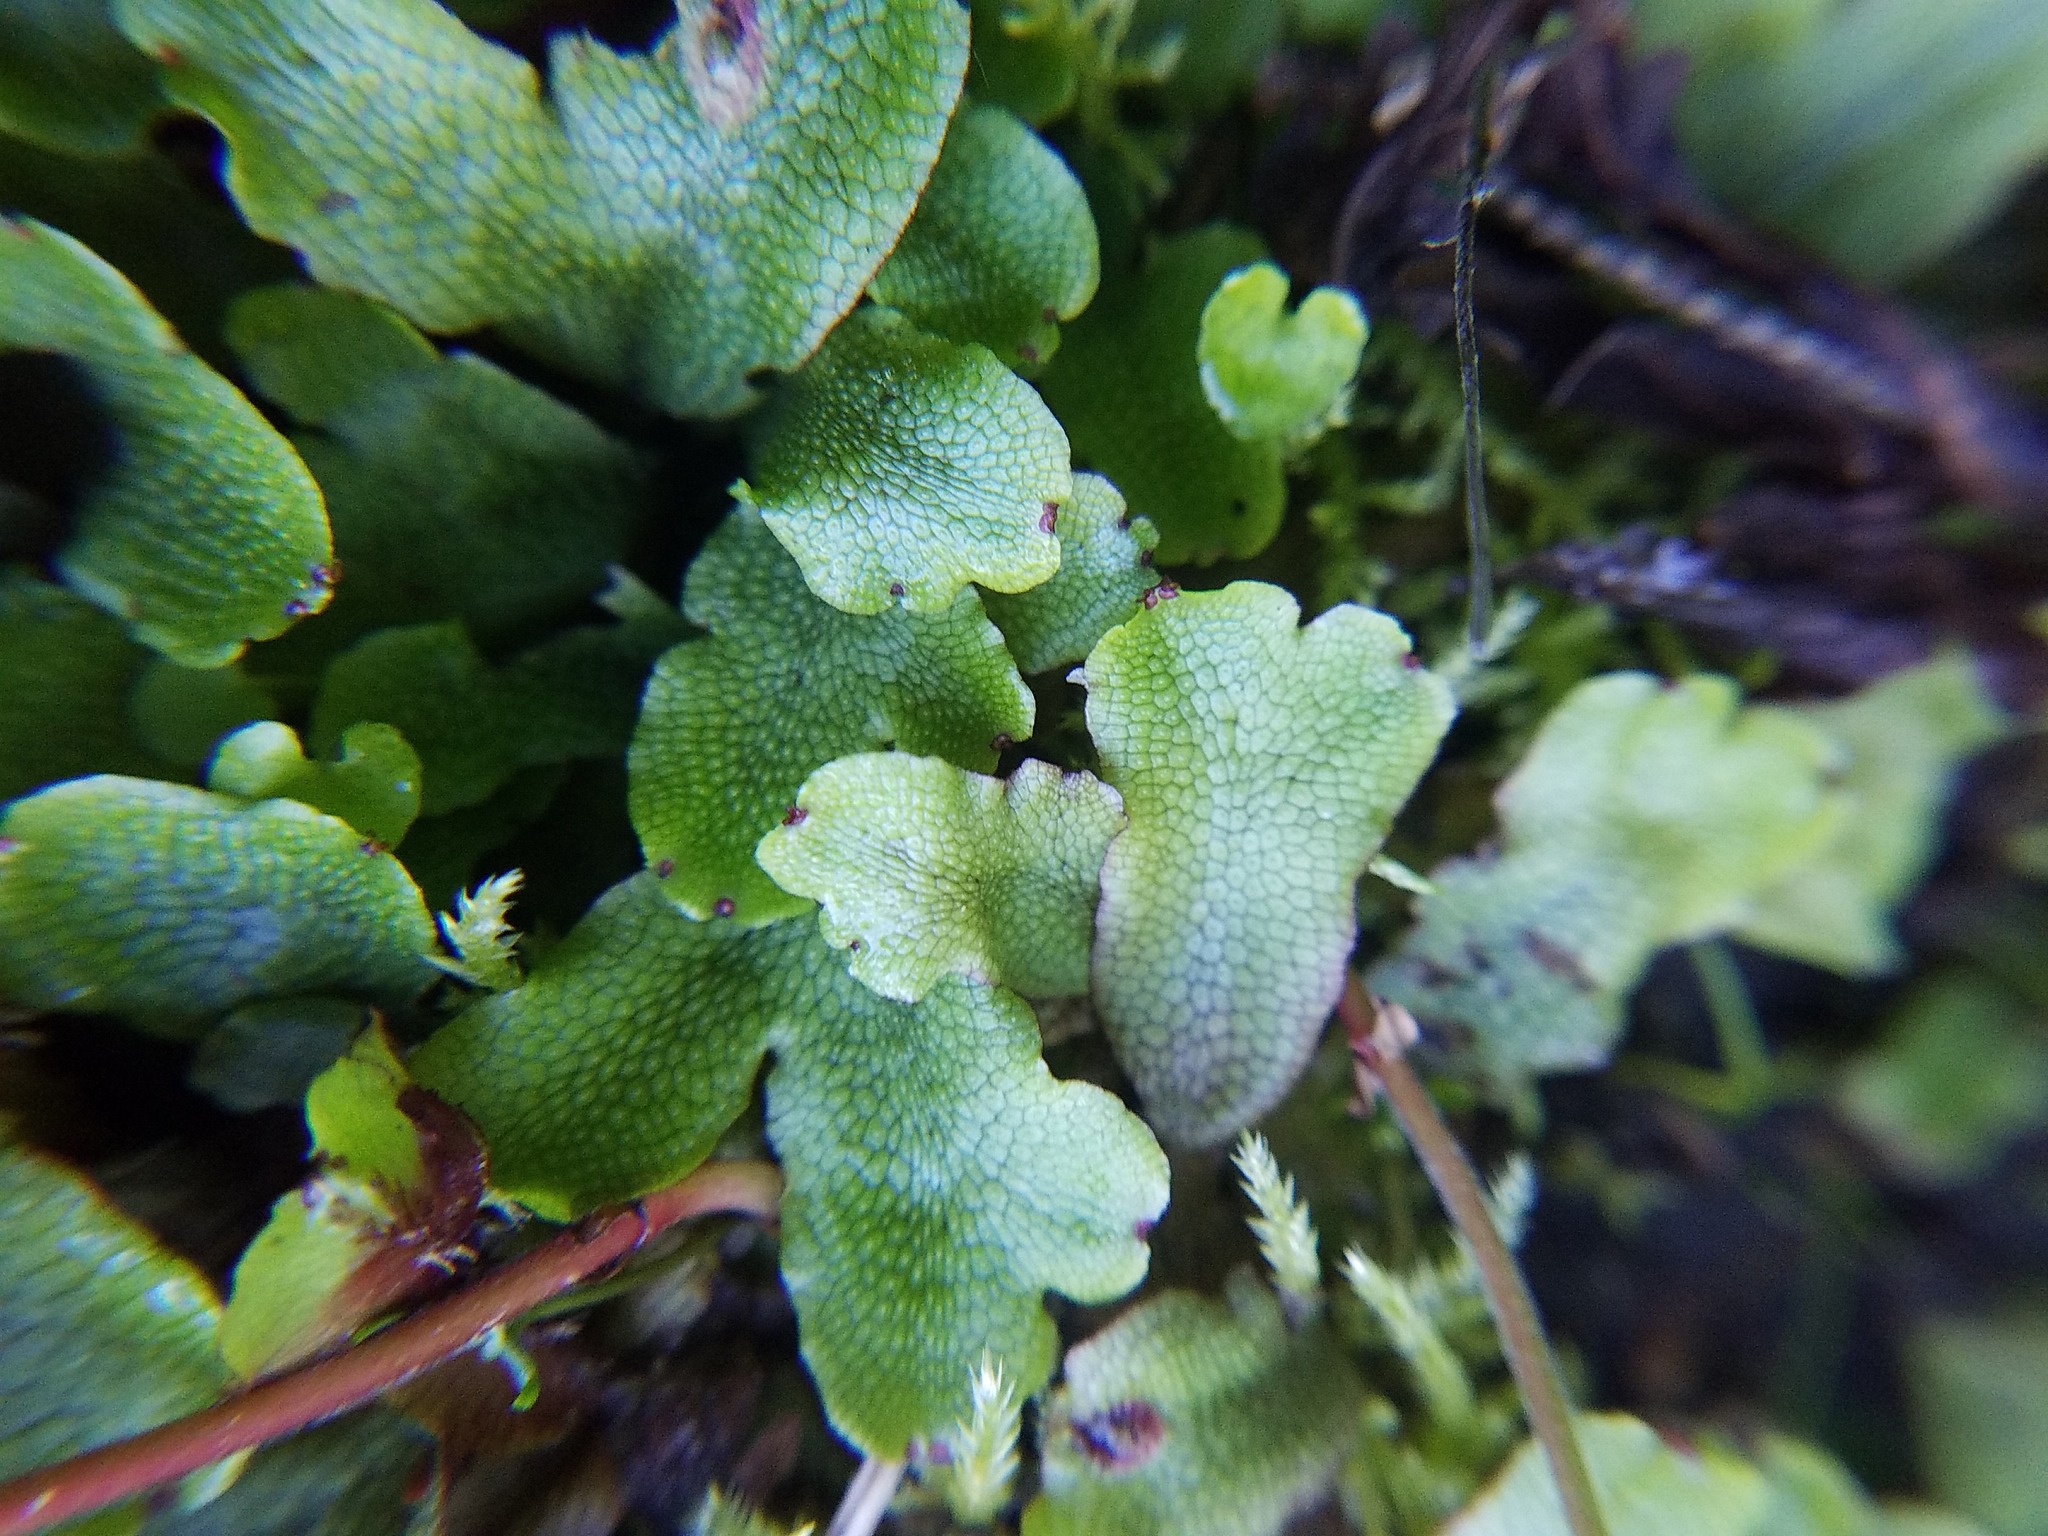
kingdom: Plantae
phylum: Marchantiophyta
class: Marchantiopsida
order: Marchantiales
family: Conocephalaceae
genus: Conocephalum
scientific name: Conocephalum salebrosum
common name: Cat-tongue liverwort
